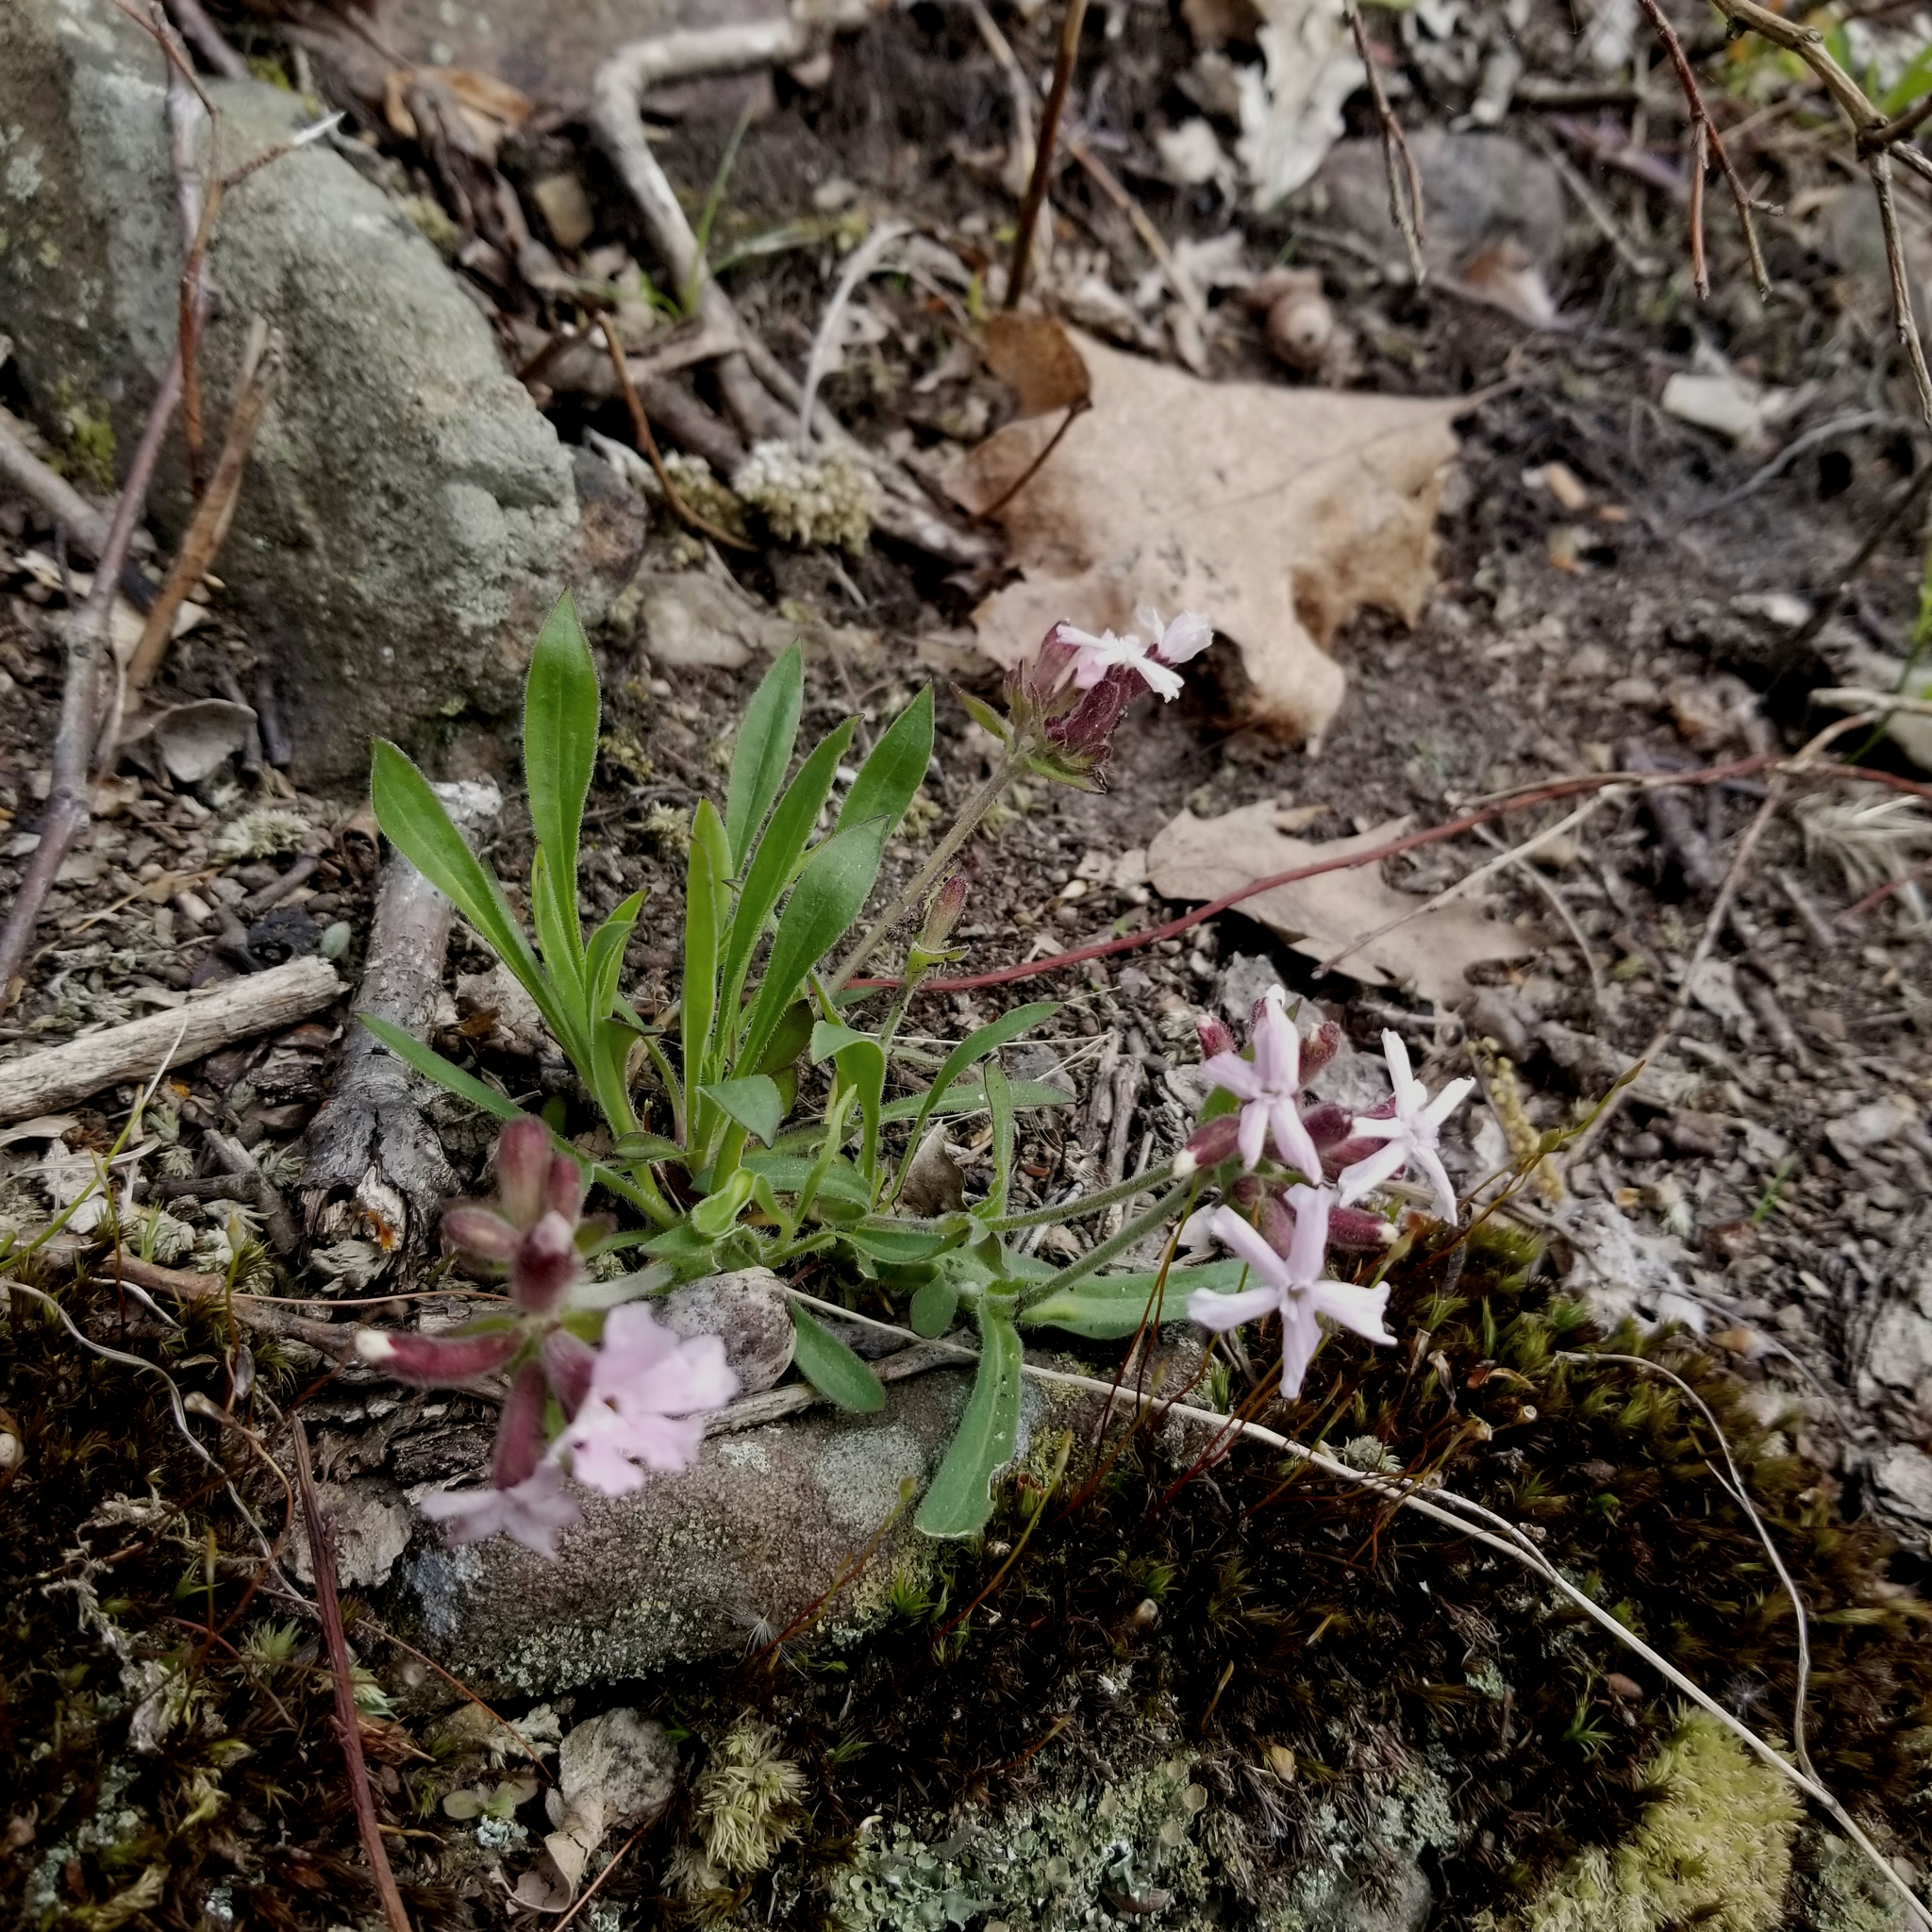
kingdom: Plantae
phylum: Tracheophyta
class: Magnoliopsida
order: Caryophyllales
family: Caryophyllaceae
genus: Silene
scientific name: Silene caroliniana
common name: Sticky catchfly
